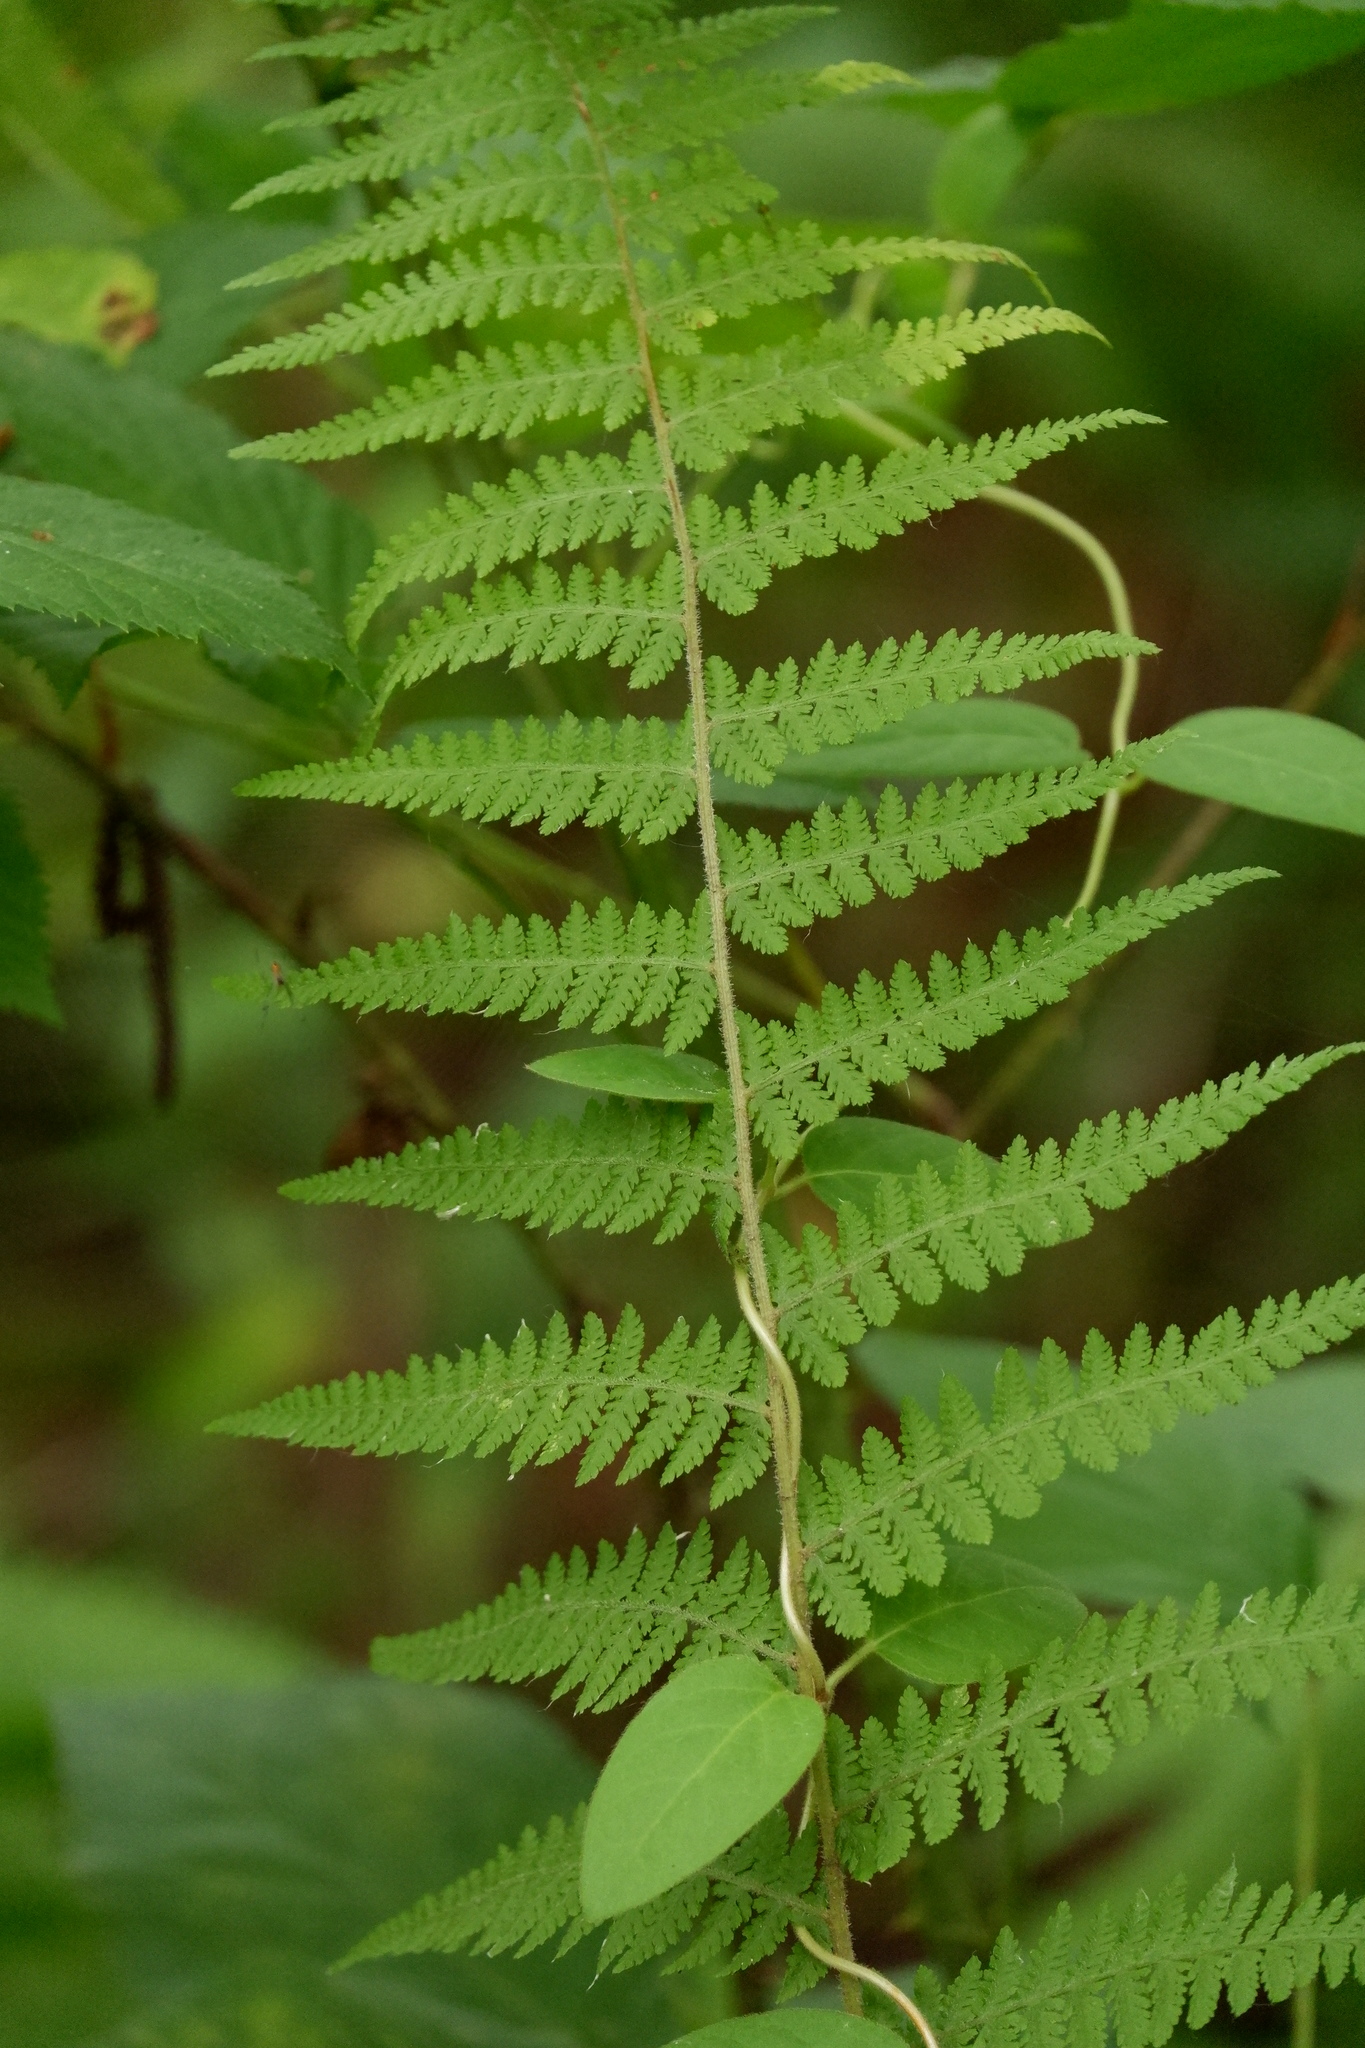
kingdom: Plantae
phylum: Tracheophyta
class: Polypodiopsida
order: Polypodiales
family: Dennstaedtiaceae
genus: Sitobolium
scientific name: Sitobolium punctilobum
